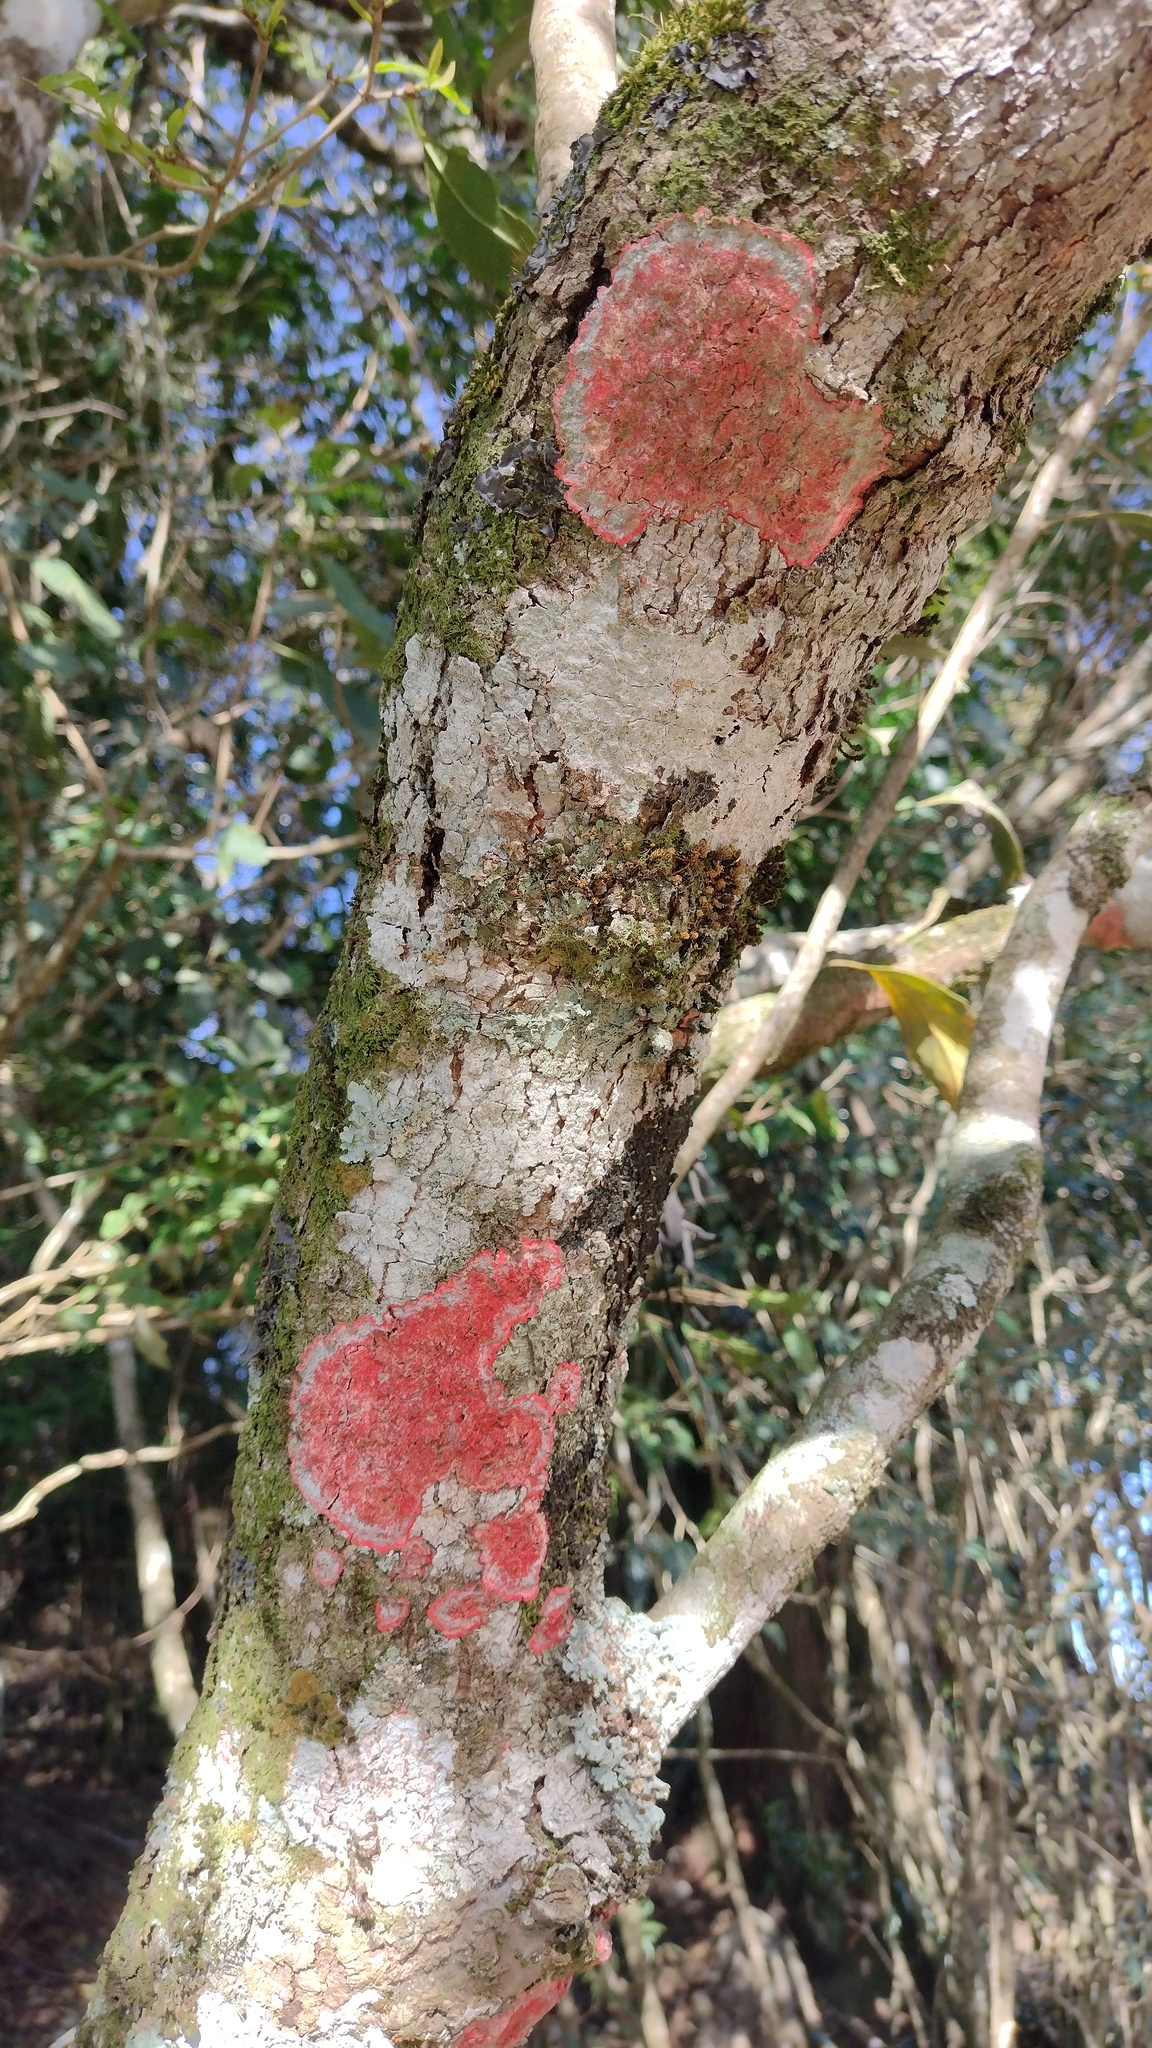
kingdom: Fungi
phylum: Ascomycota
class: Arthoniomycetes
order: Arthoniales
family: Arthoniaceae
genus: Herpothallon
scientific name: Herpothallon rubrocinctum
